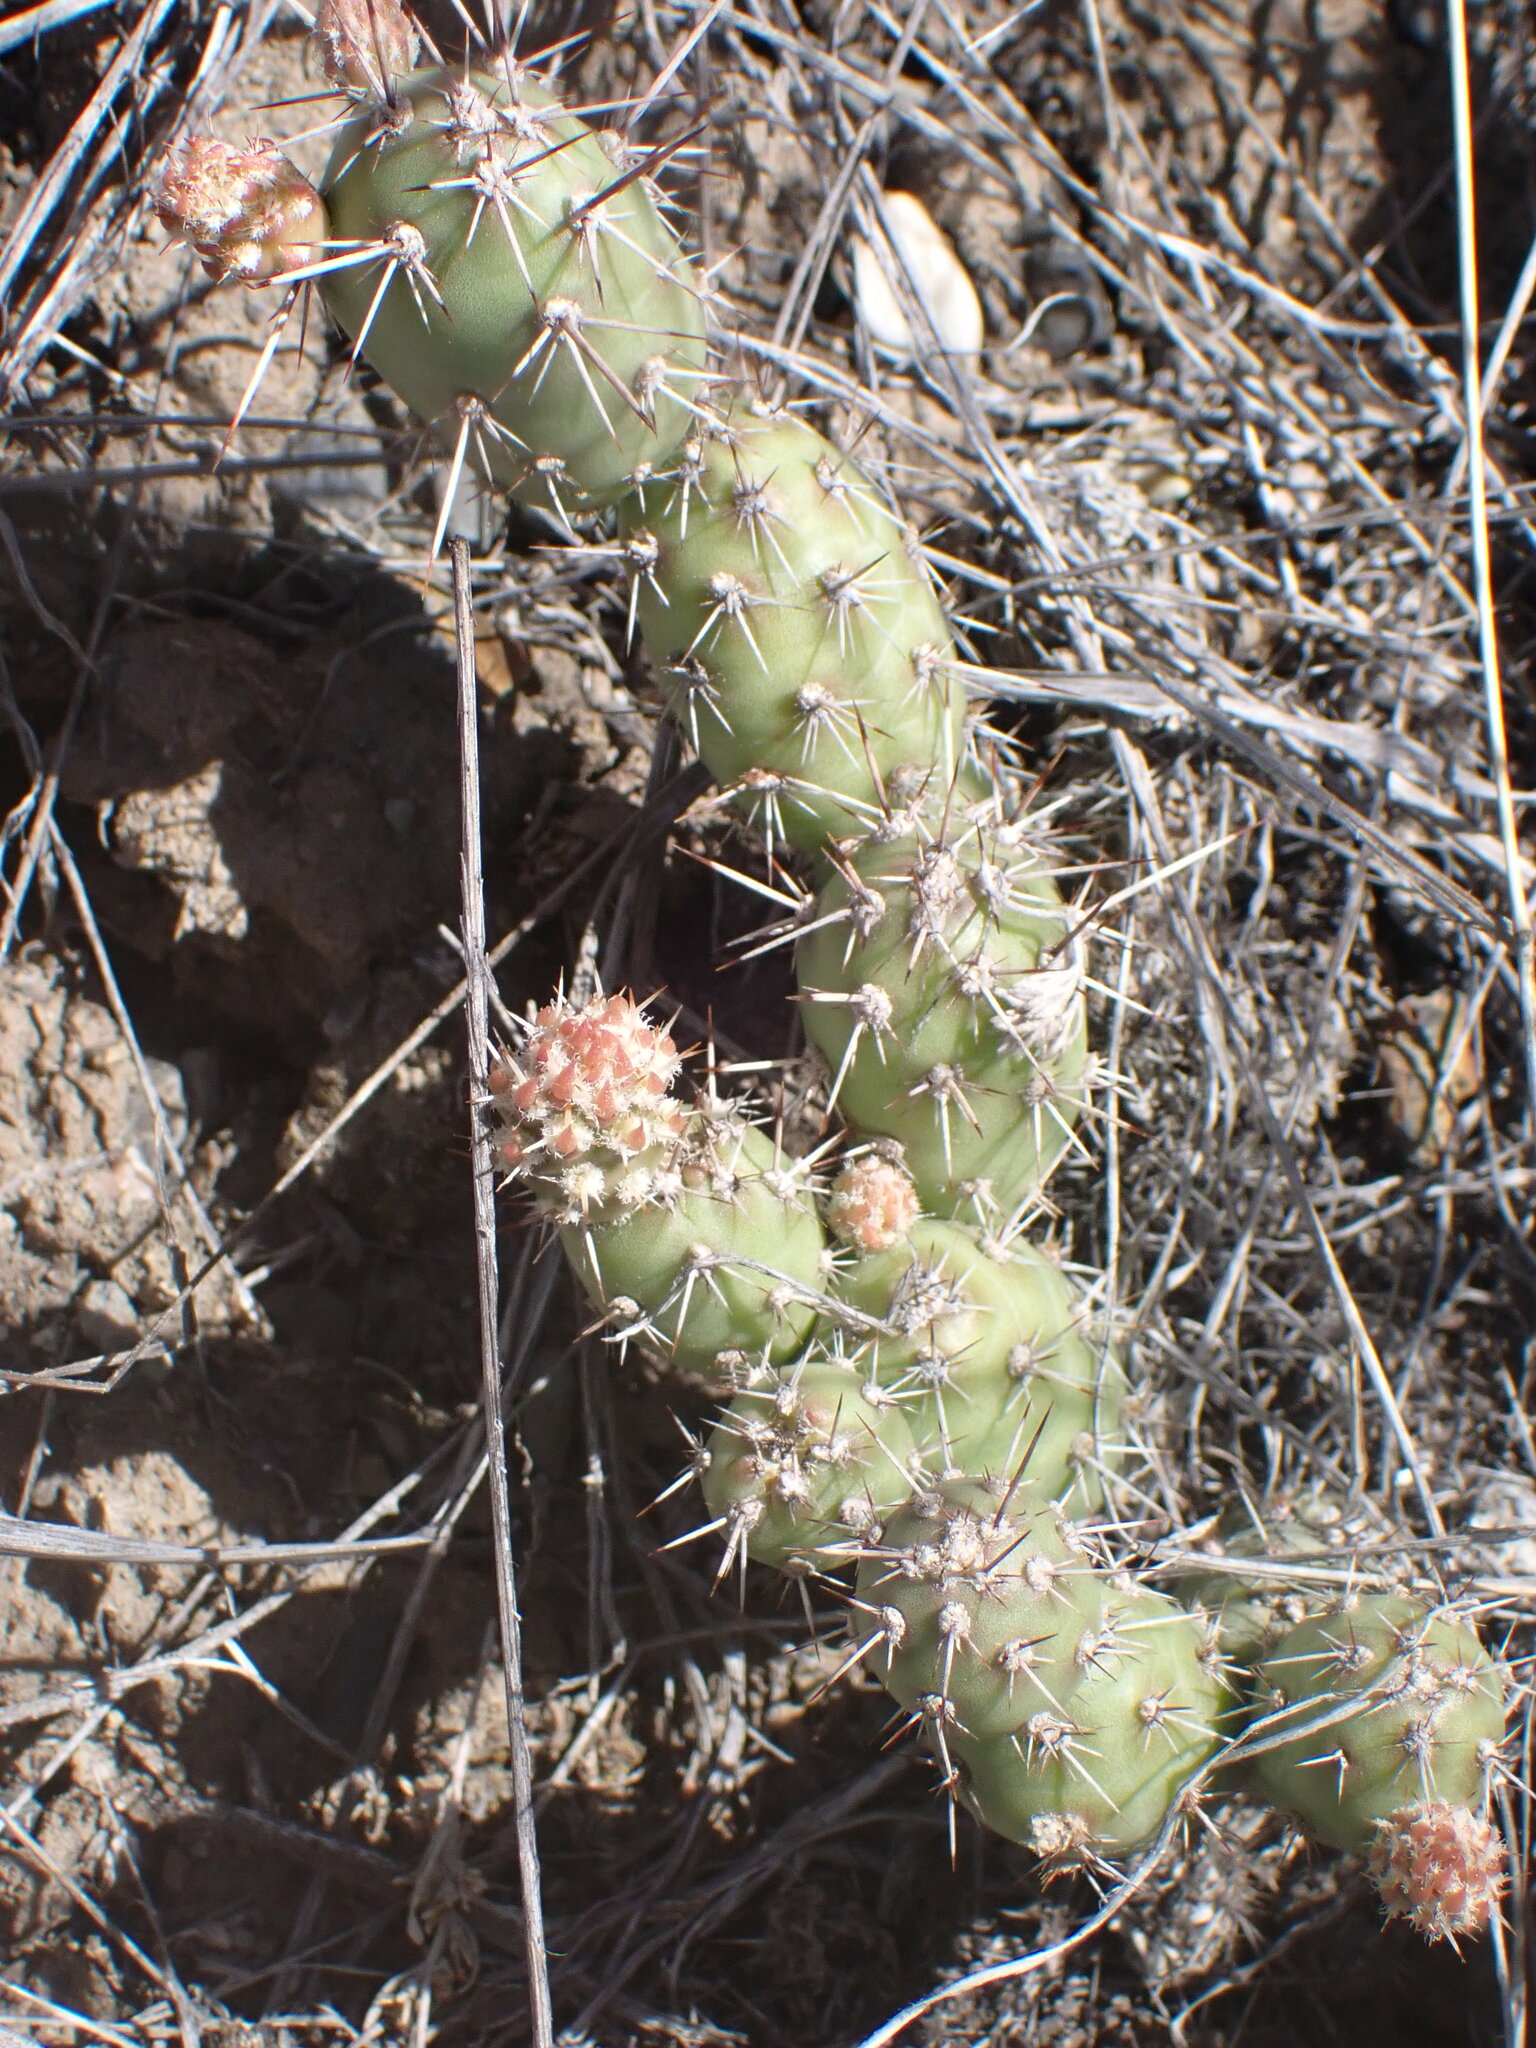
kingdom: Plantae
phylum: Tracheophyta
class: Magnoliopsida
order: Caryophyllales
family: Cactaceae
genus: Opuntia
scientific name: Opuntia fragilis
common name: Brittle cactus
